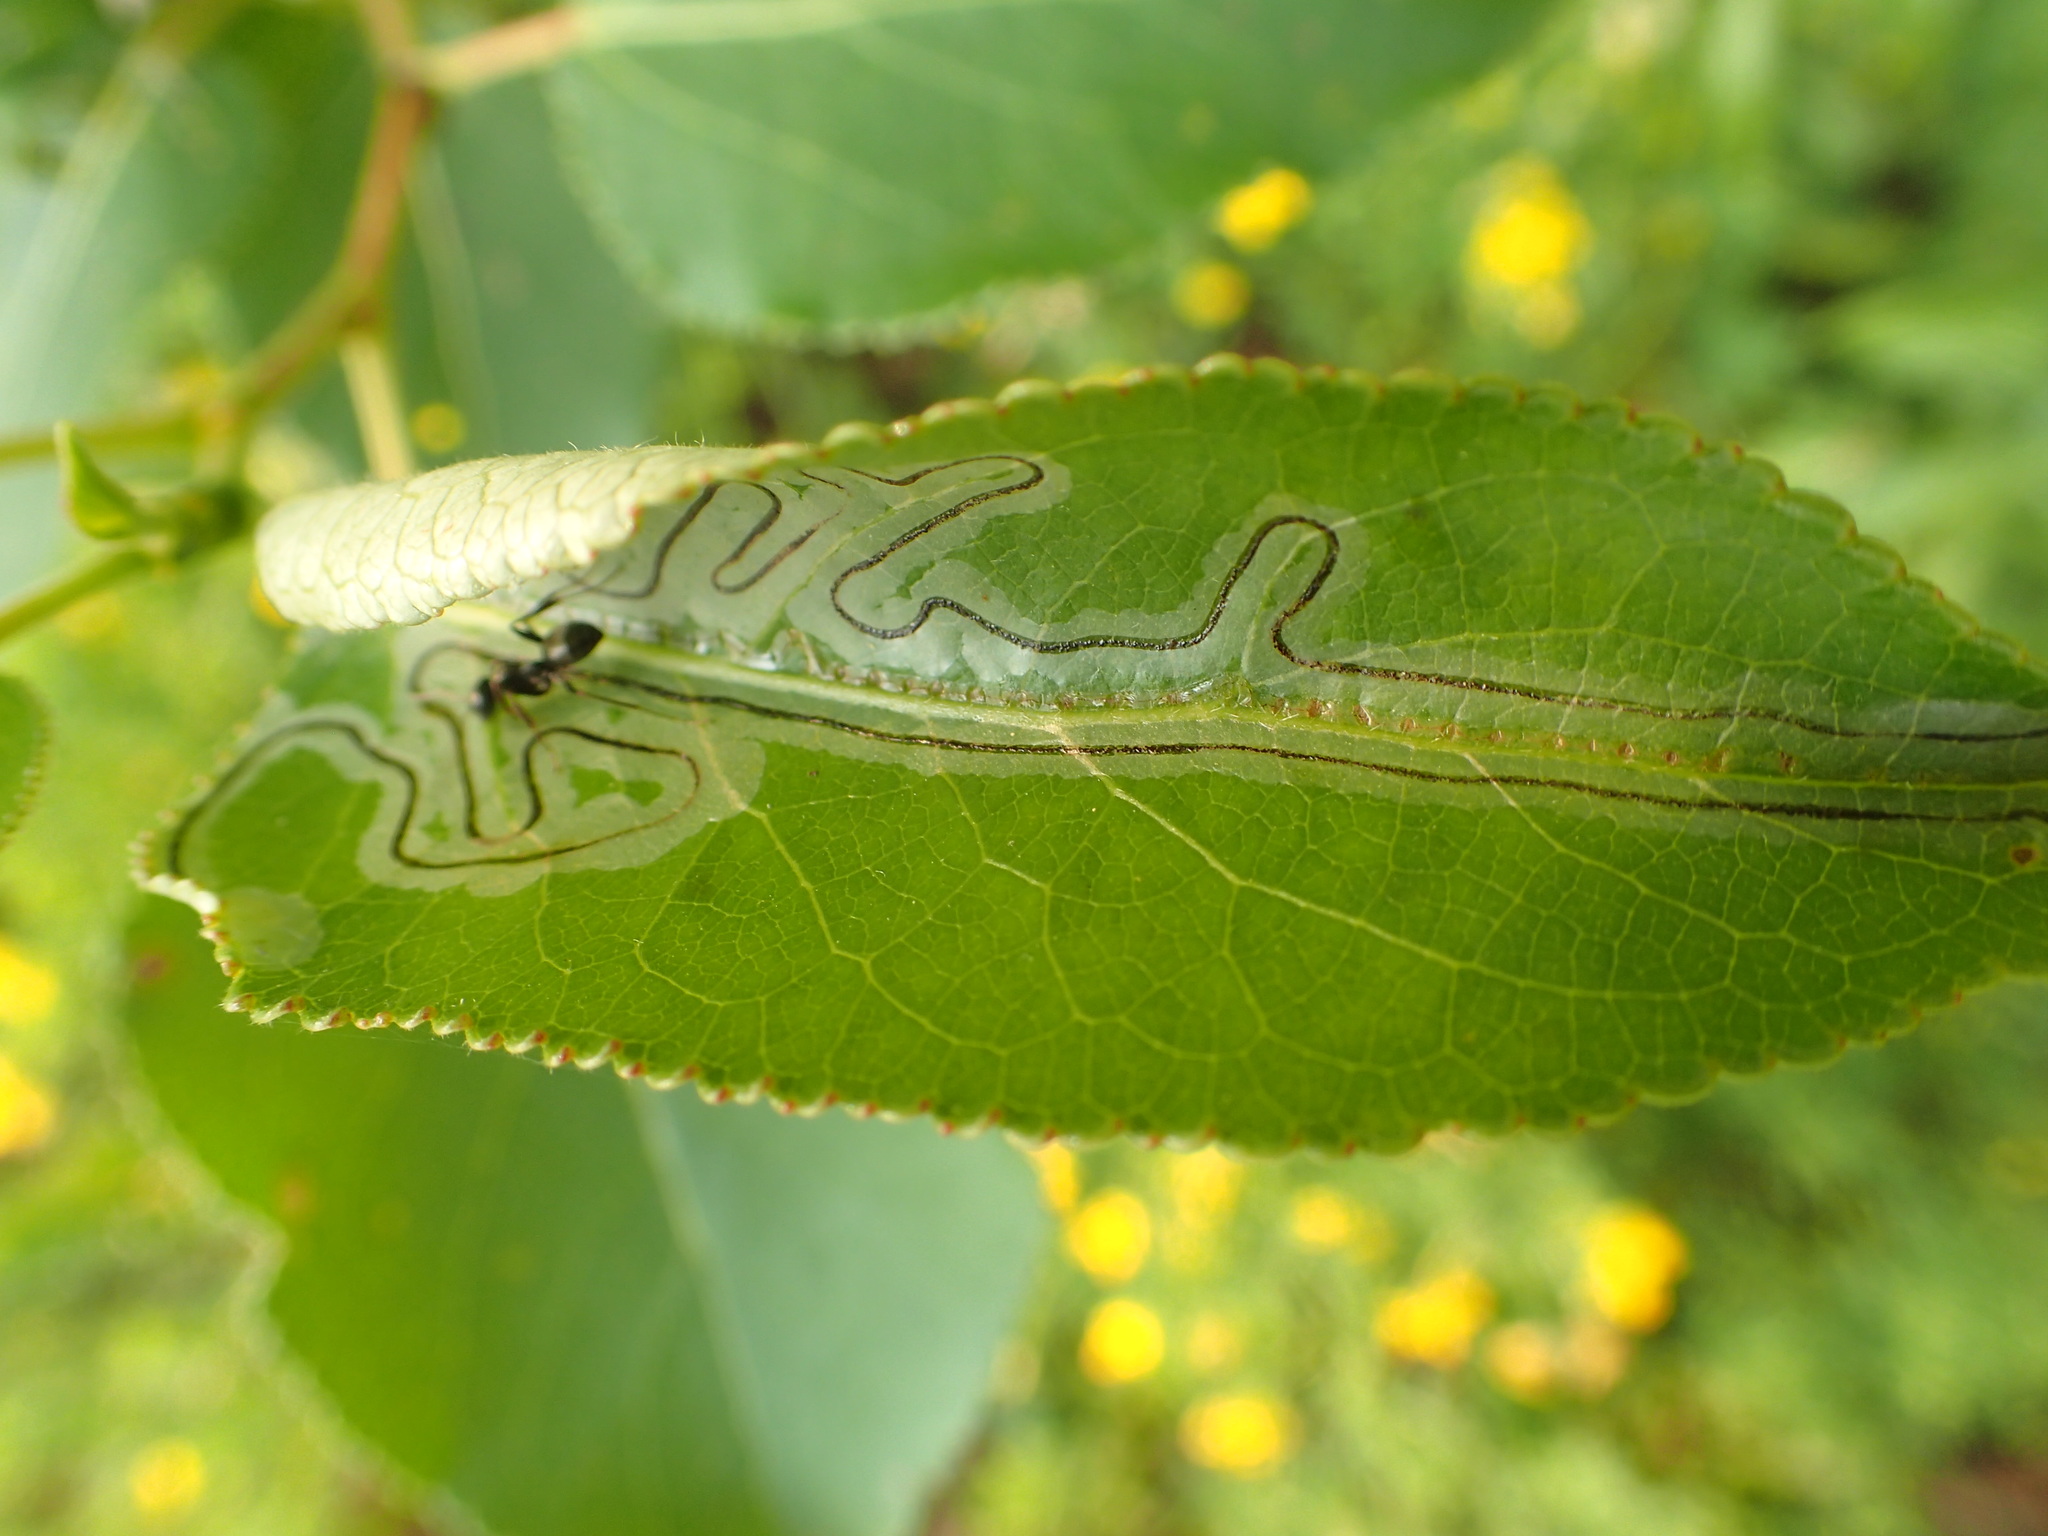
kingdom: Animalia
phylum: Arthropoda
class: Insecta
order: Lepidoptera
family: Gracillariidae
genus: Phyllocnistis
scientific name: Phyllocnistis populiella
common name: Aspen serpentine leafminer moth
